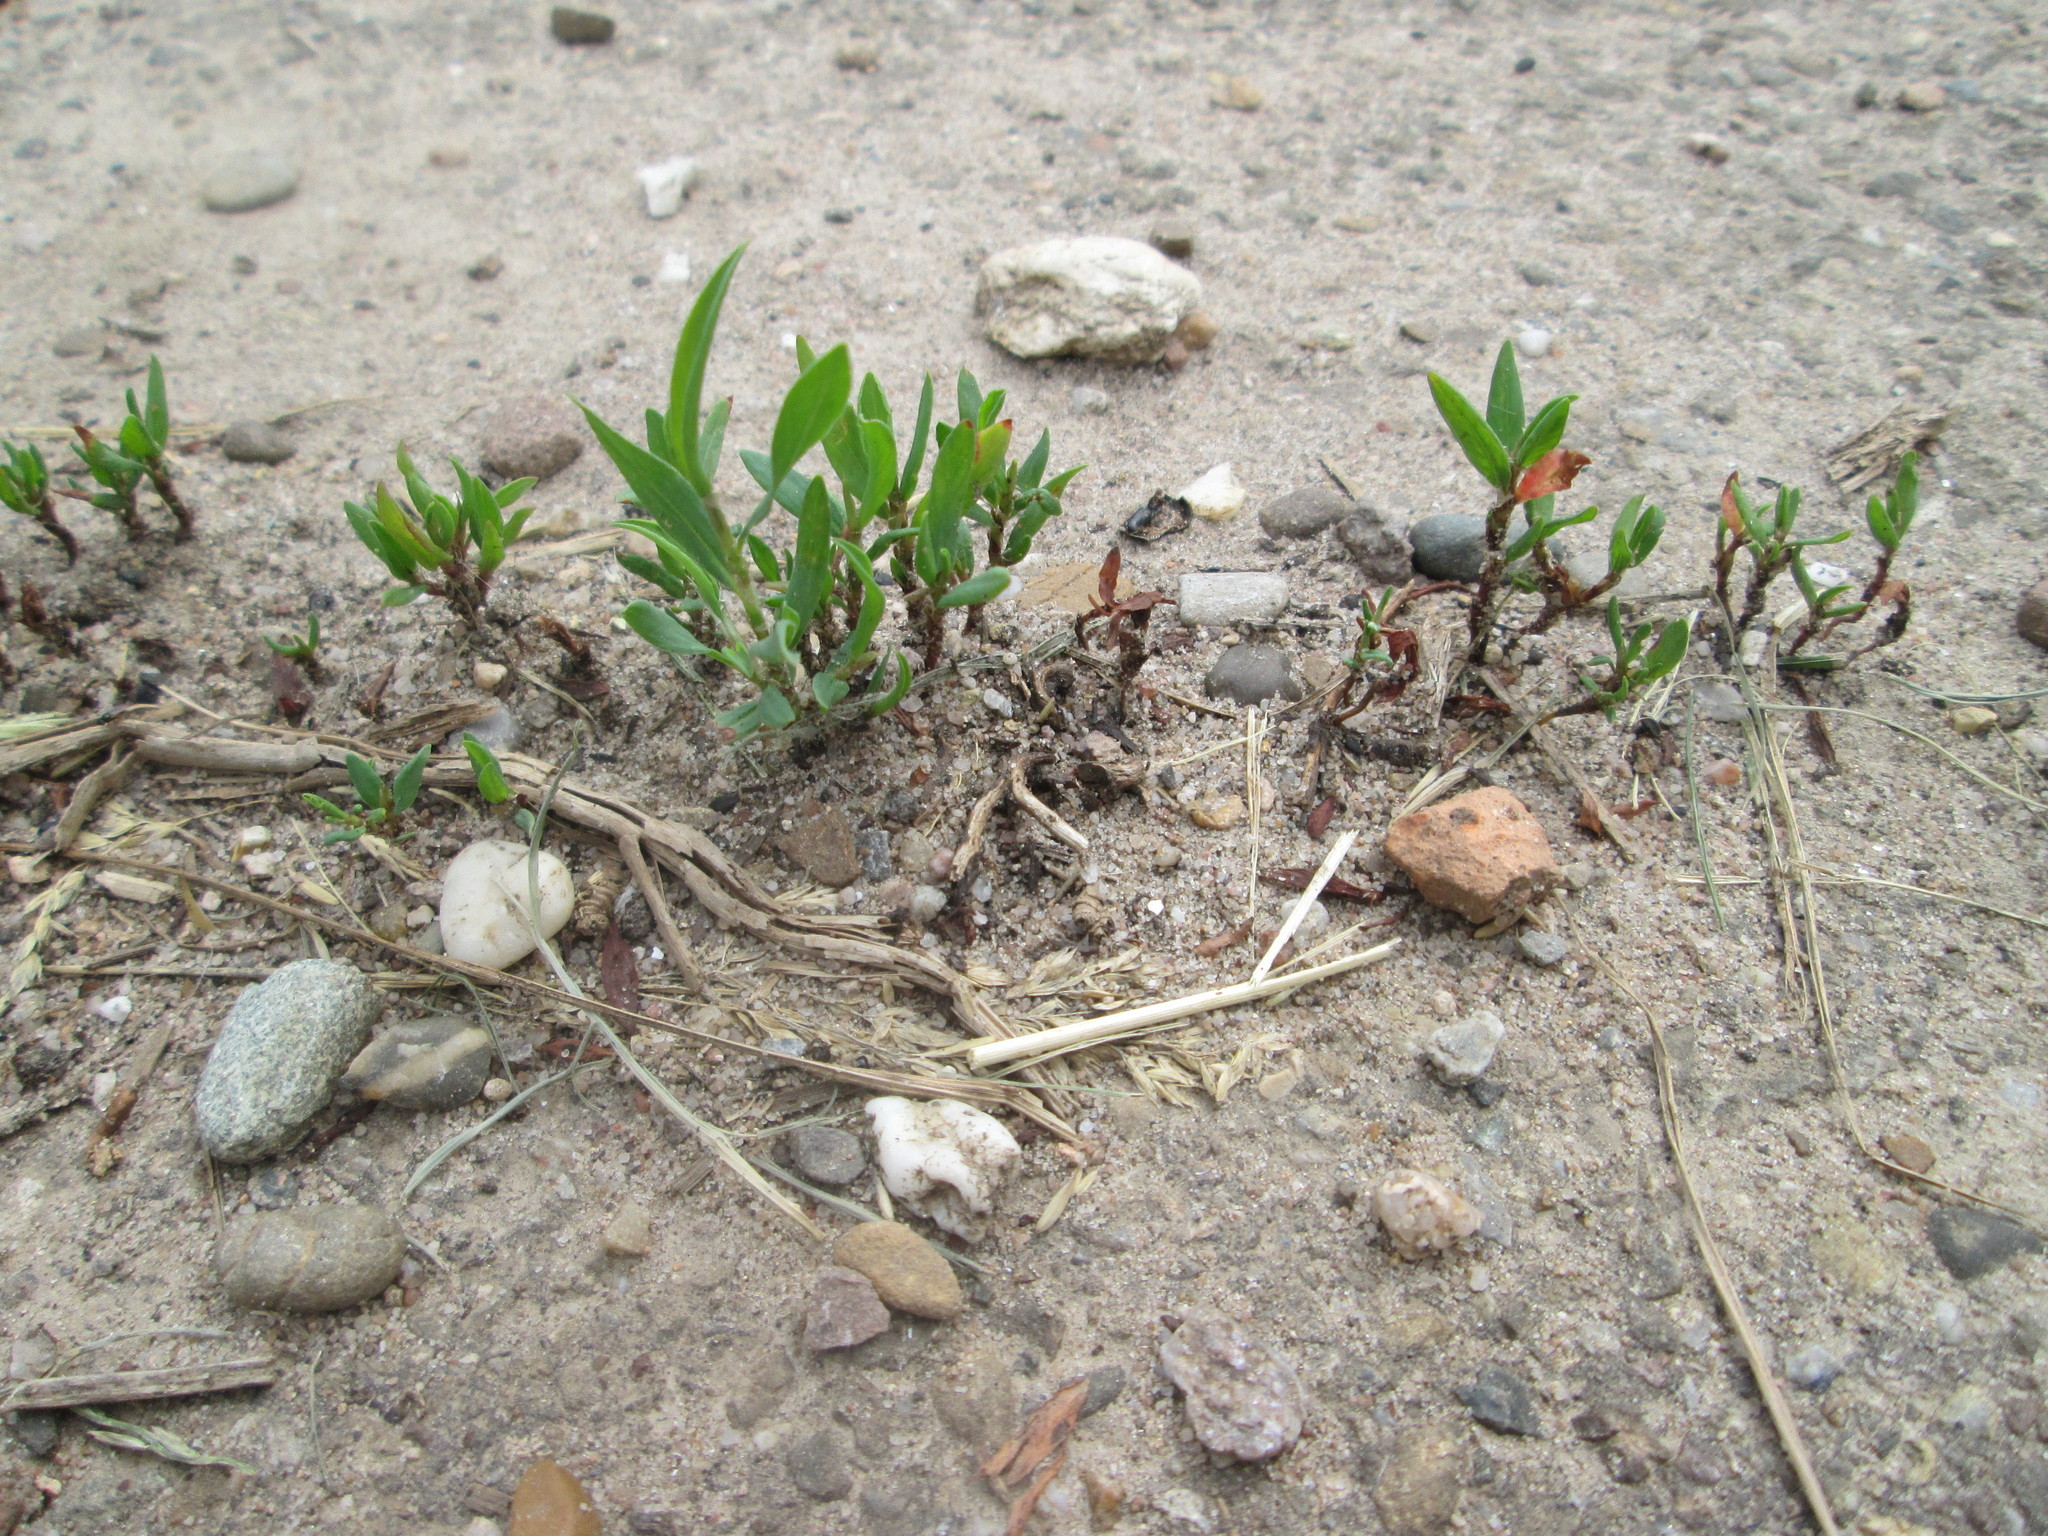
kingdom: Plantae
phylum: Tracheophyta
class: Magnoliopsida
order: Caryophyllales
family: Polygonaceae
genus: Polygonum
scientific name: Polygonum aviculare
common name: Prostrate knotweed
